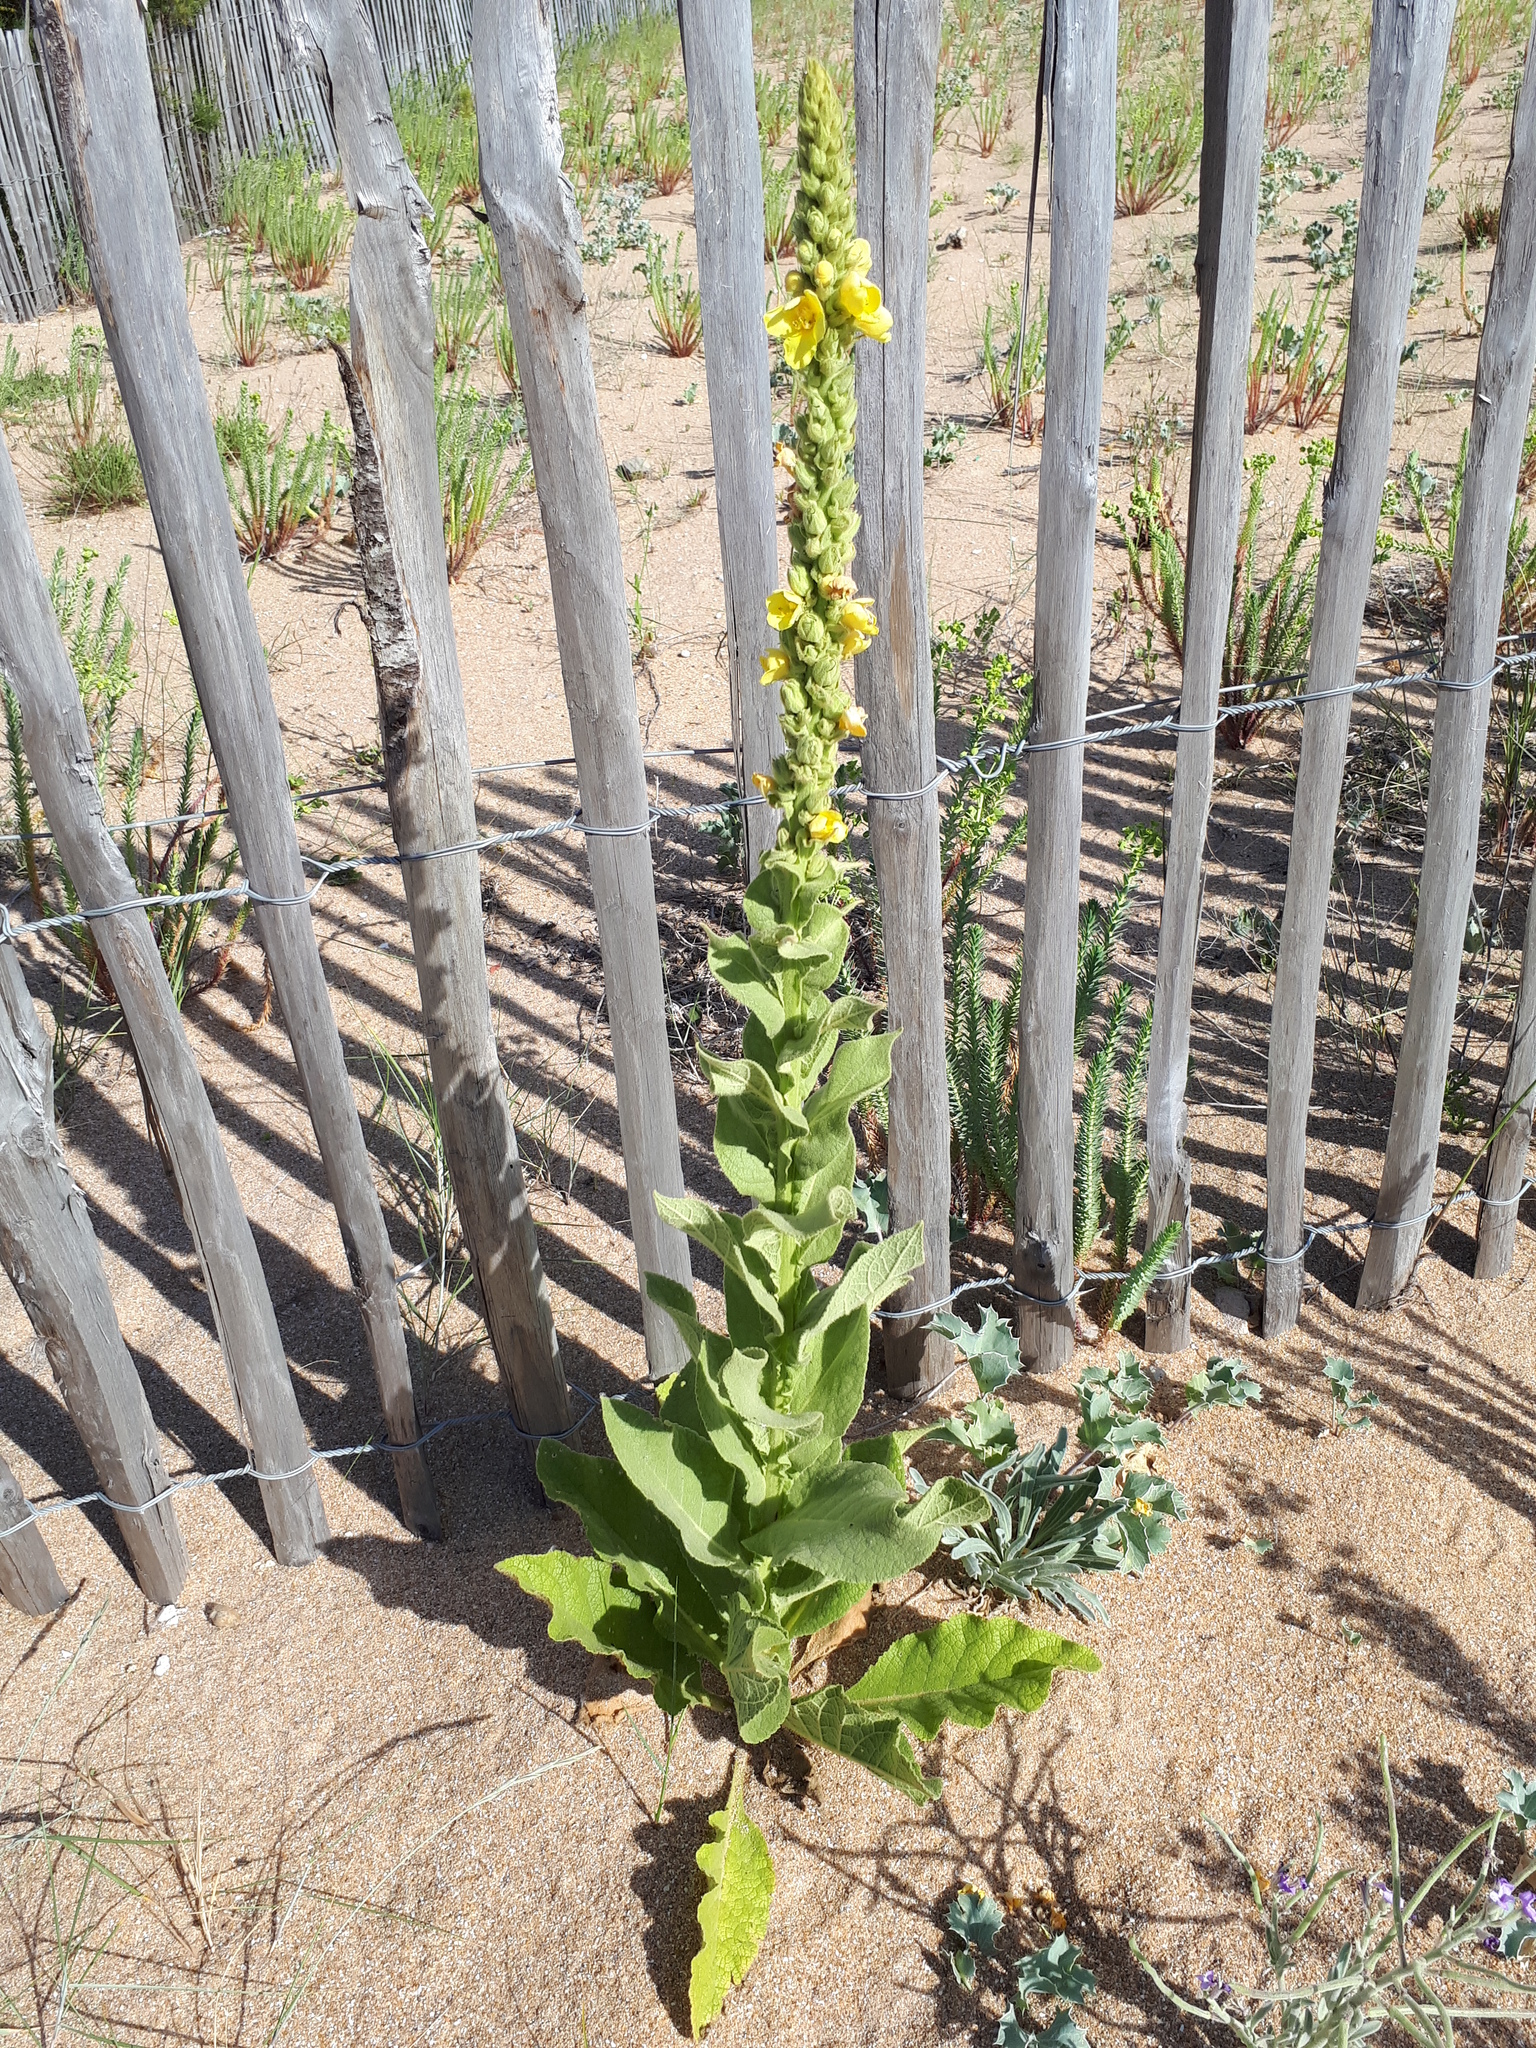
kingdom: Plantae
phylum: Tracheophyta
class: Magnoliopsida
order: Lamiales
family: Scrophulariaceae
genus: Verbascum
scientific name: Verbascum thapsus
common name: Common mullein
